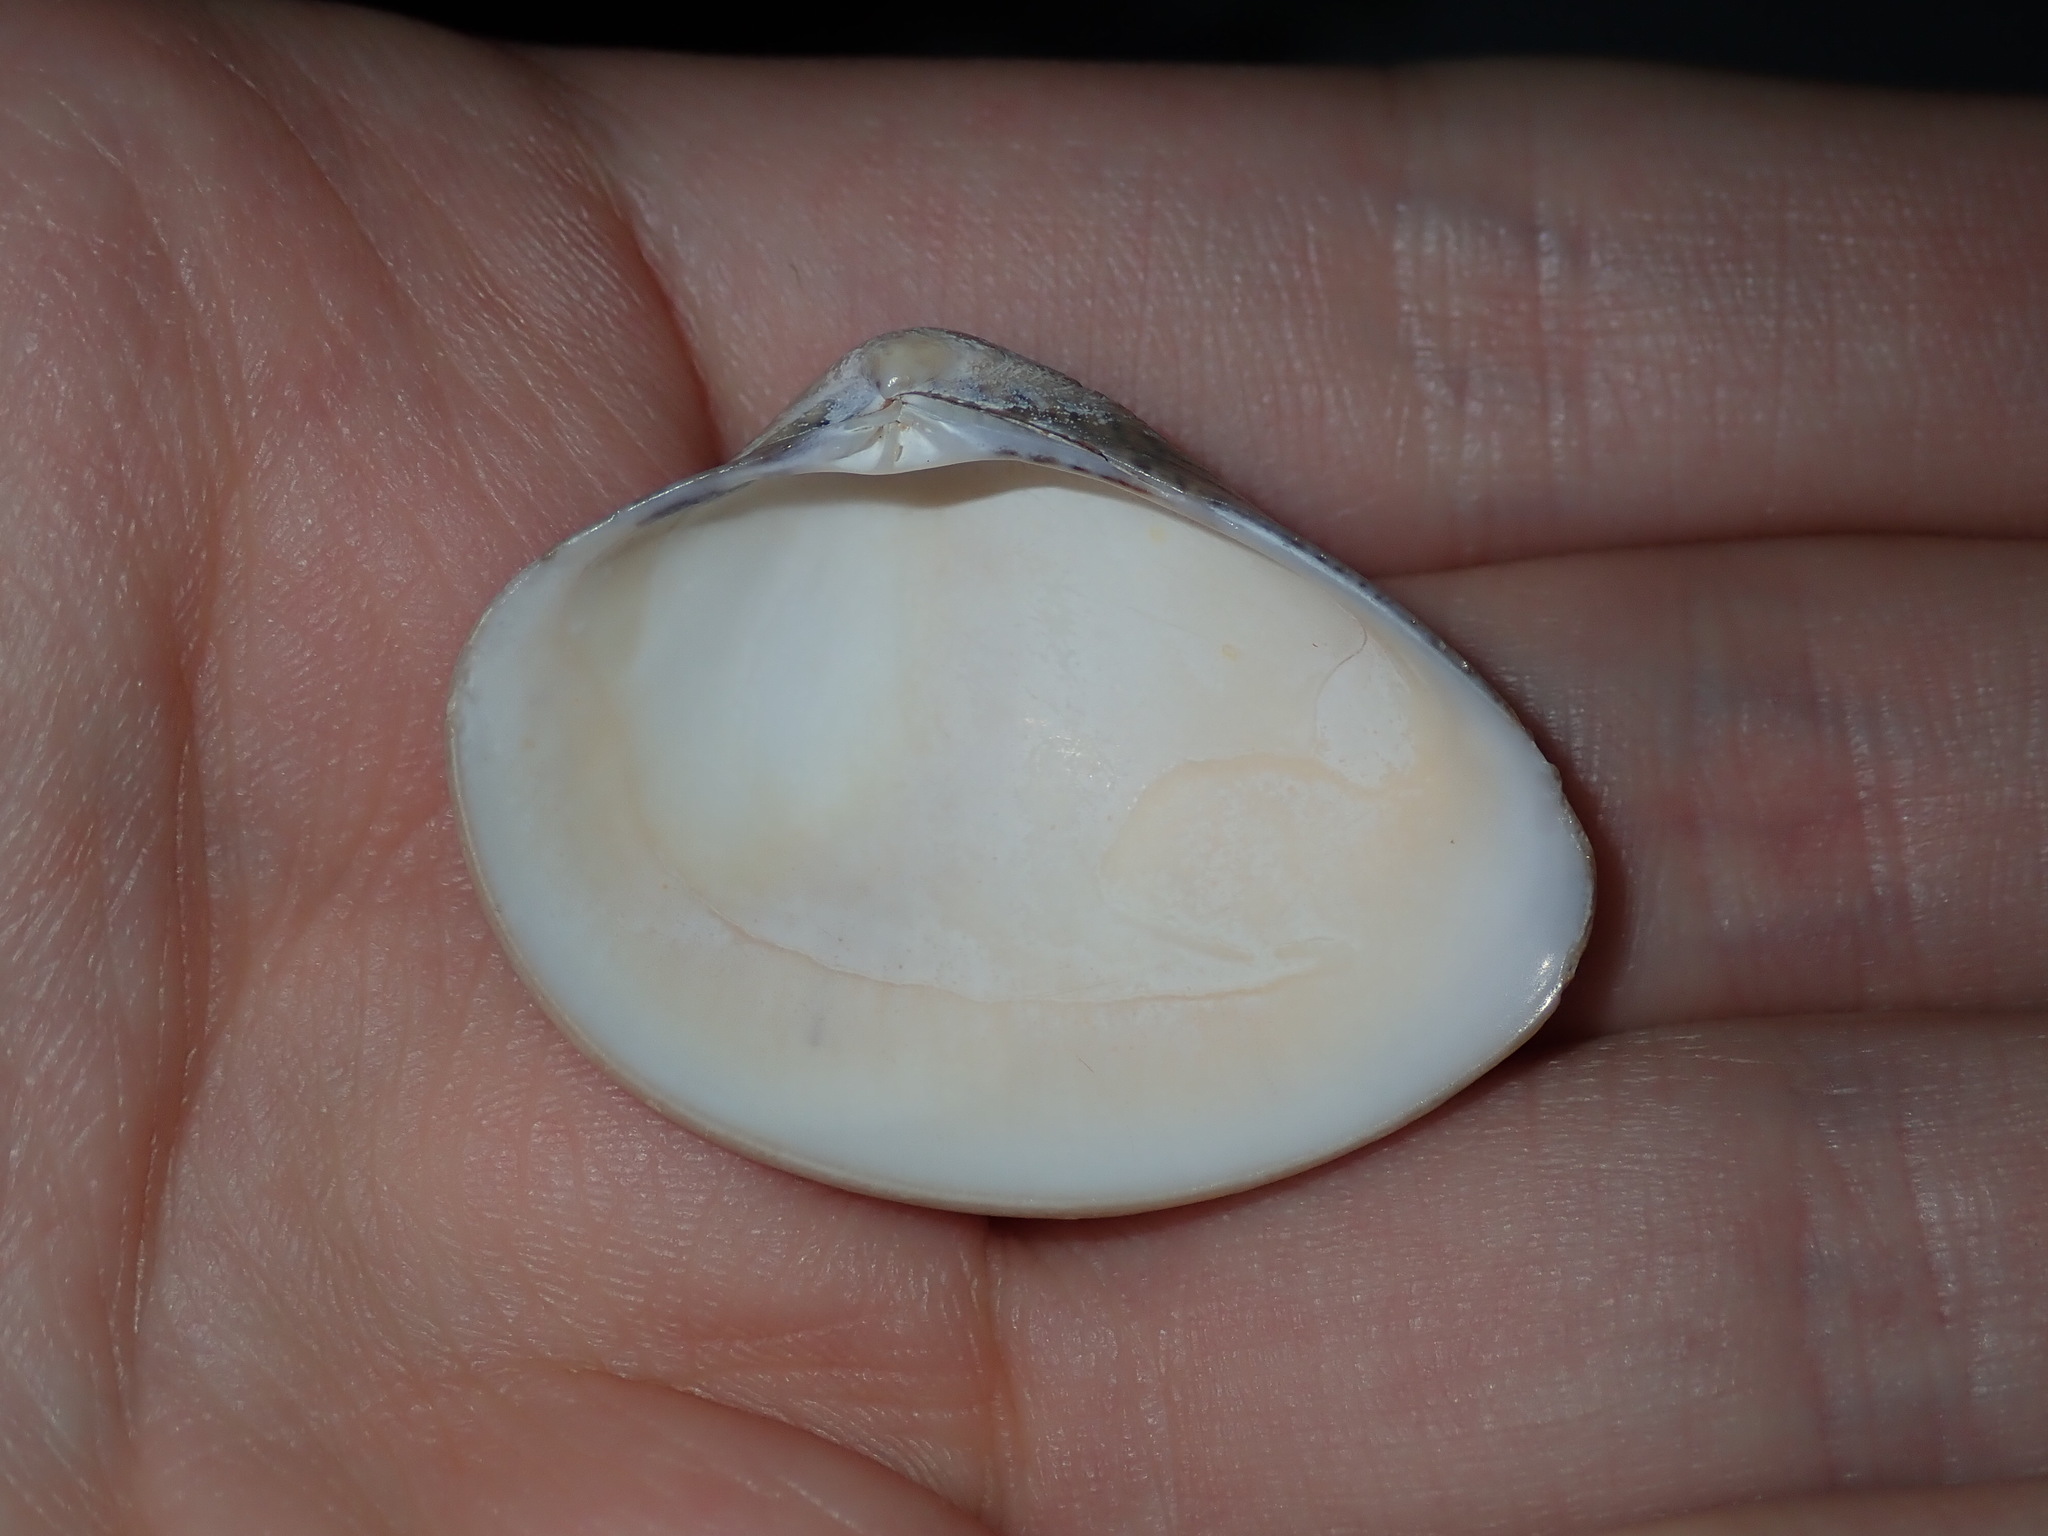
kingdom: Animalia
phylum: Mollusca
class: Bivalvia
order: Venerida
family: Veneridae
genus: Eumarcia
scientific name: Eumarcia fumigata
